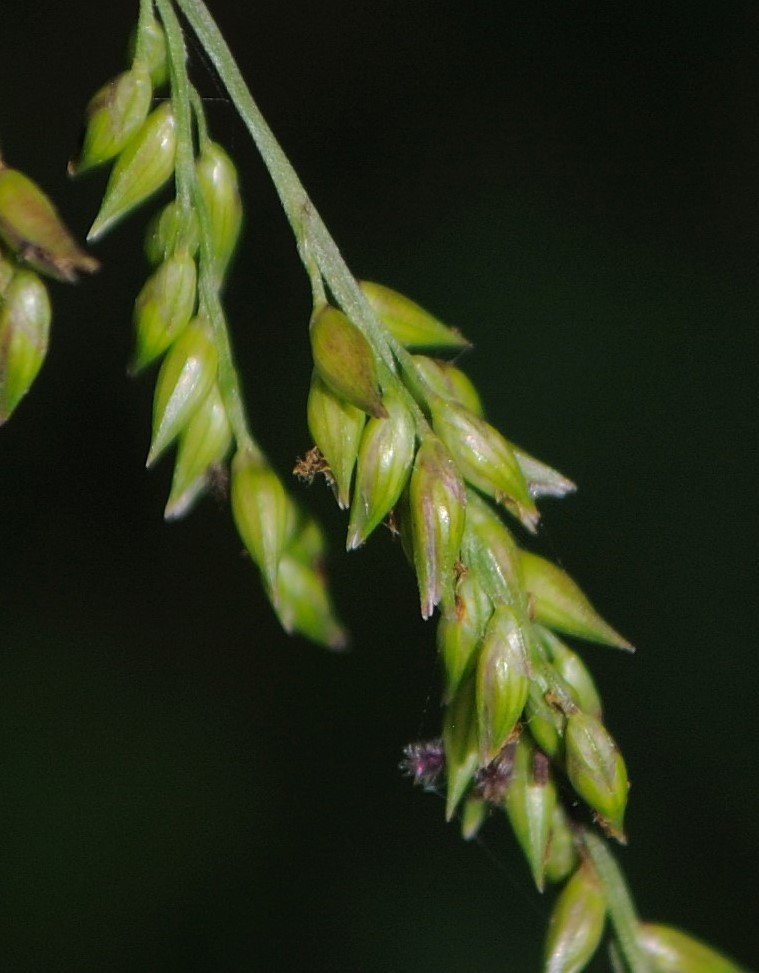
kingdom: Plantae
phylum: Tracheophyta
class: Liliopsida
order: Poales
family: Poaceae
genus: Coleataenia
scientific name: Coleataenia anceps
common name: Beaked panic grass
